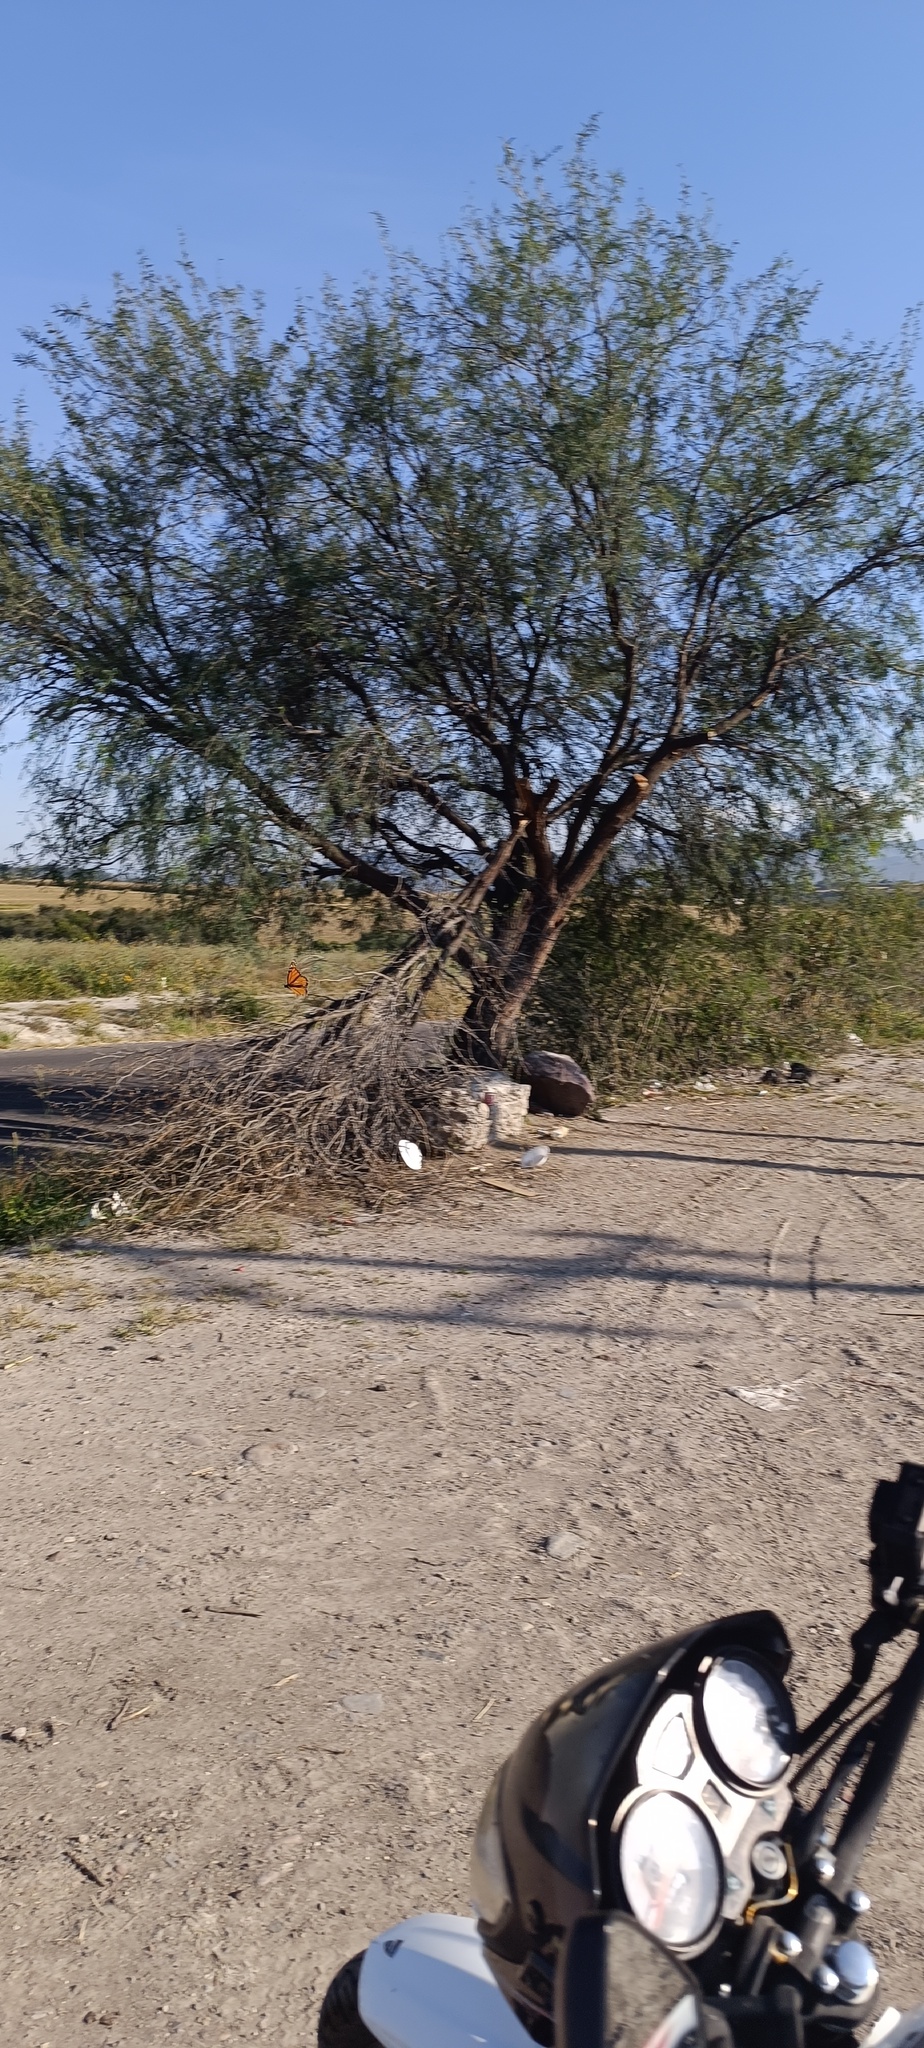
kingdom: Animalia
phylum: Arthropoda
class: Insecta
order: Lepidoptera
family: Nymphalidae
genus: Danaus
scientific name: Danaus plexippus
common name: Monarch
